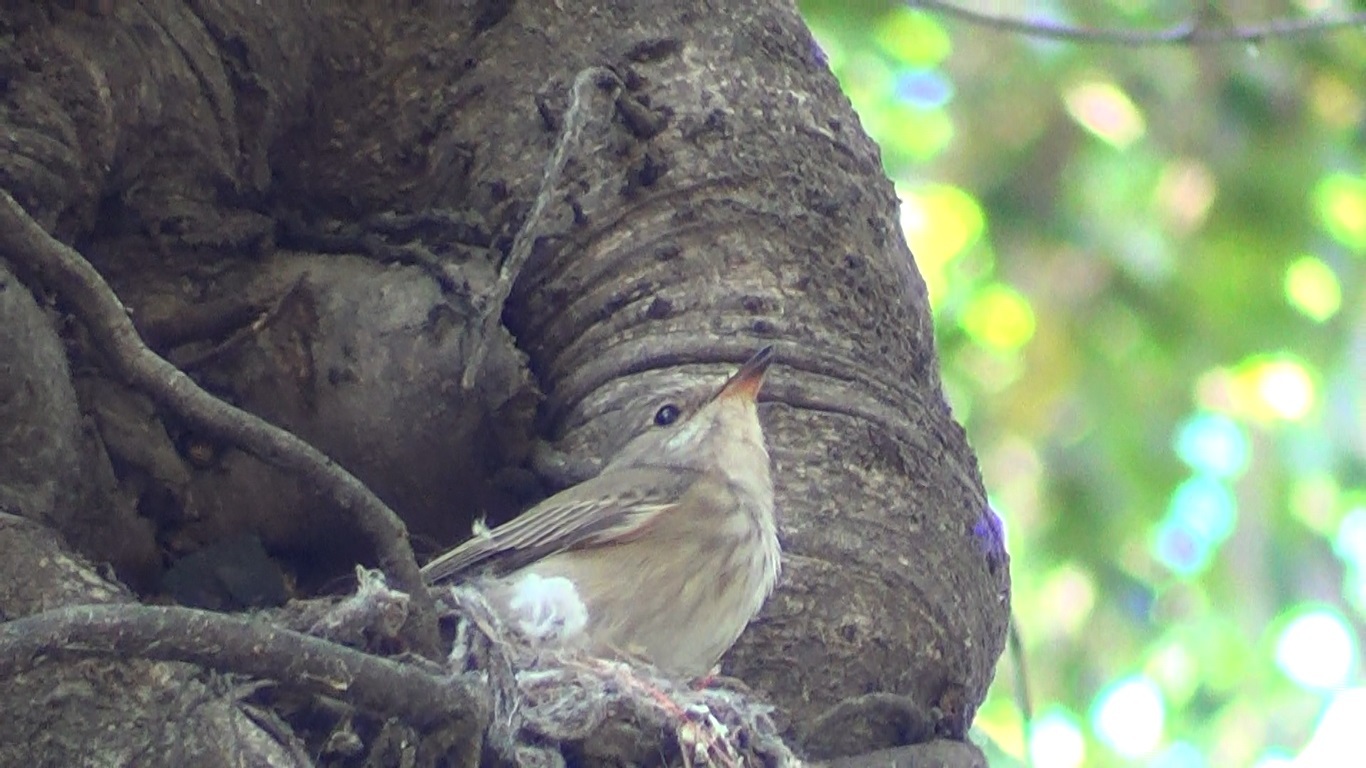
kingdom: Animalia
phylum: Chordata
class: Aves
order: Passeriformes
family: Muscicapidae
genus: Muscicapa
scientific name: Muscicapa striata
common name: Spotted flycatcher
